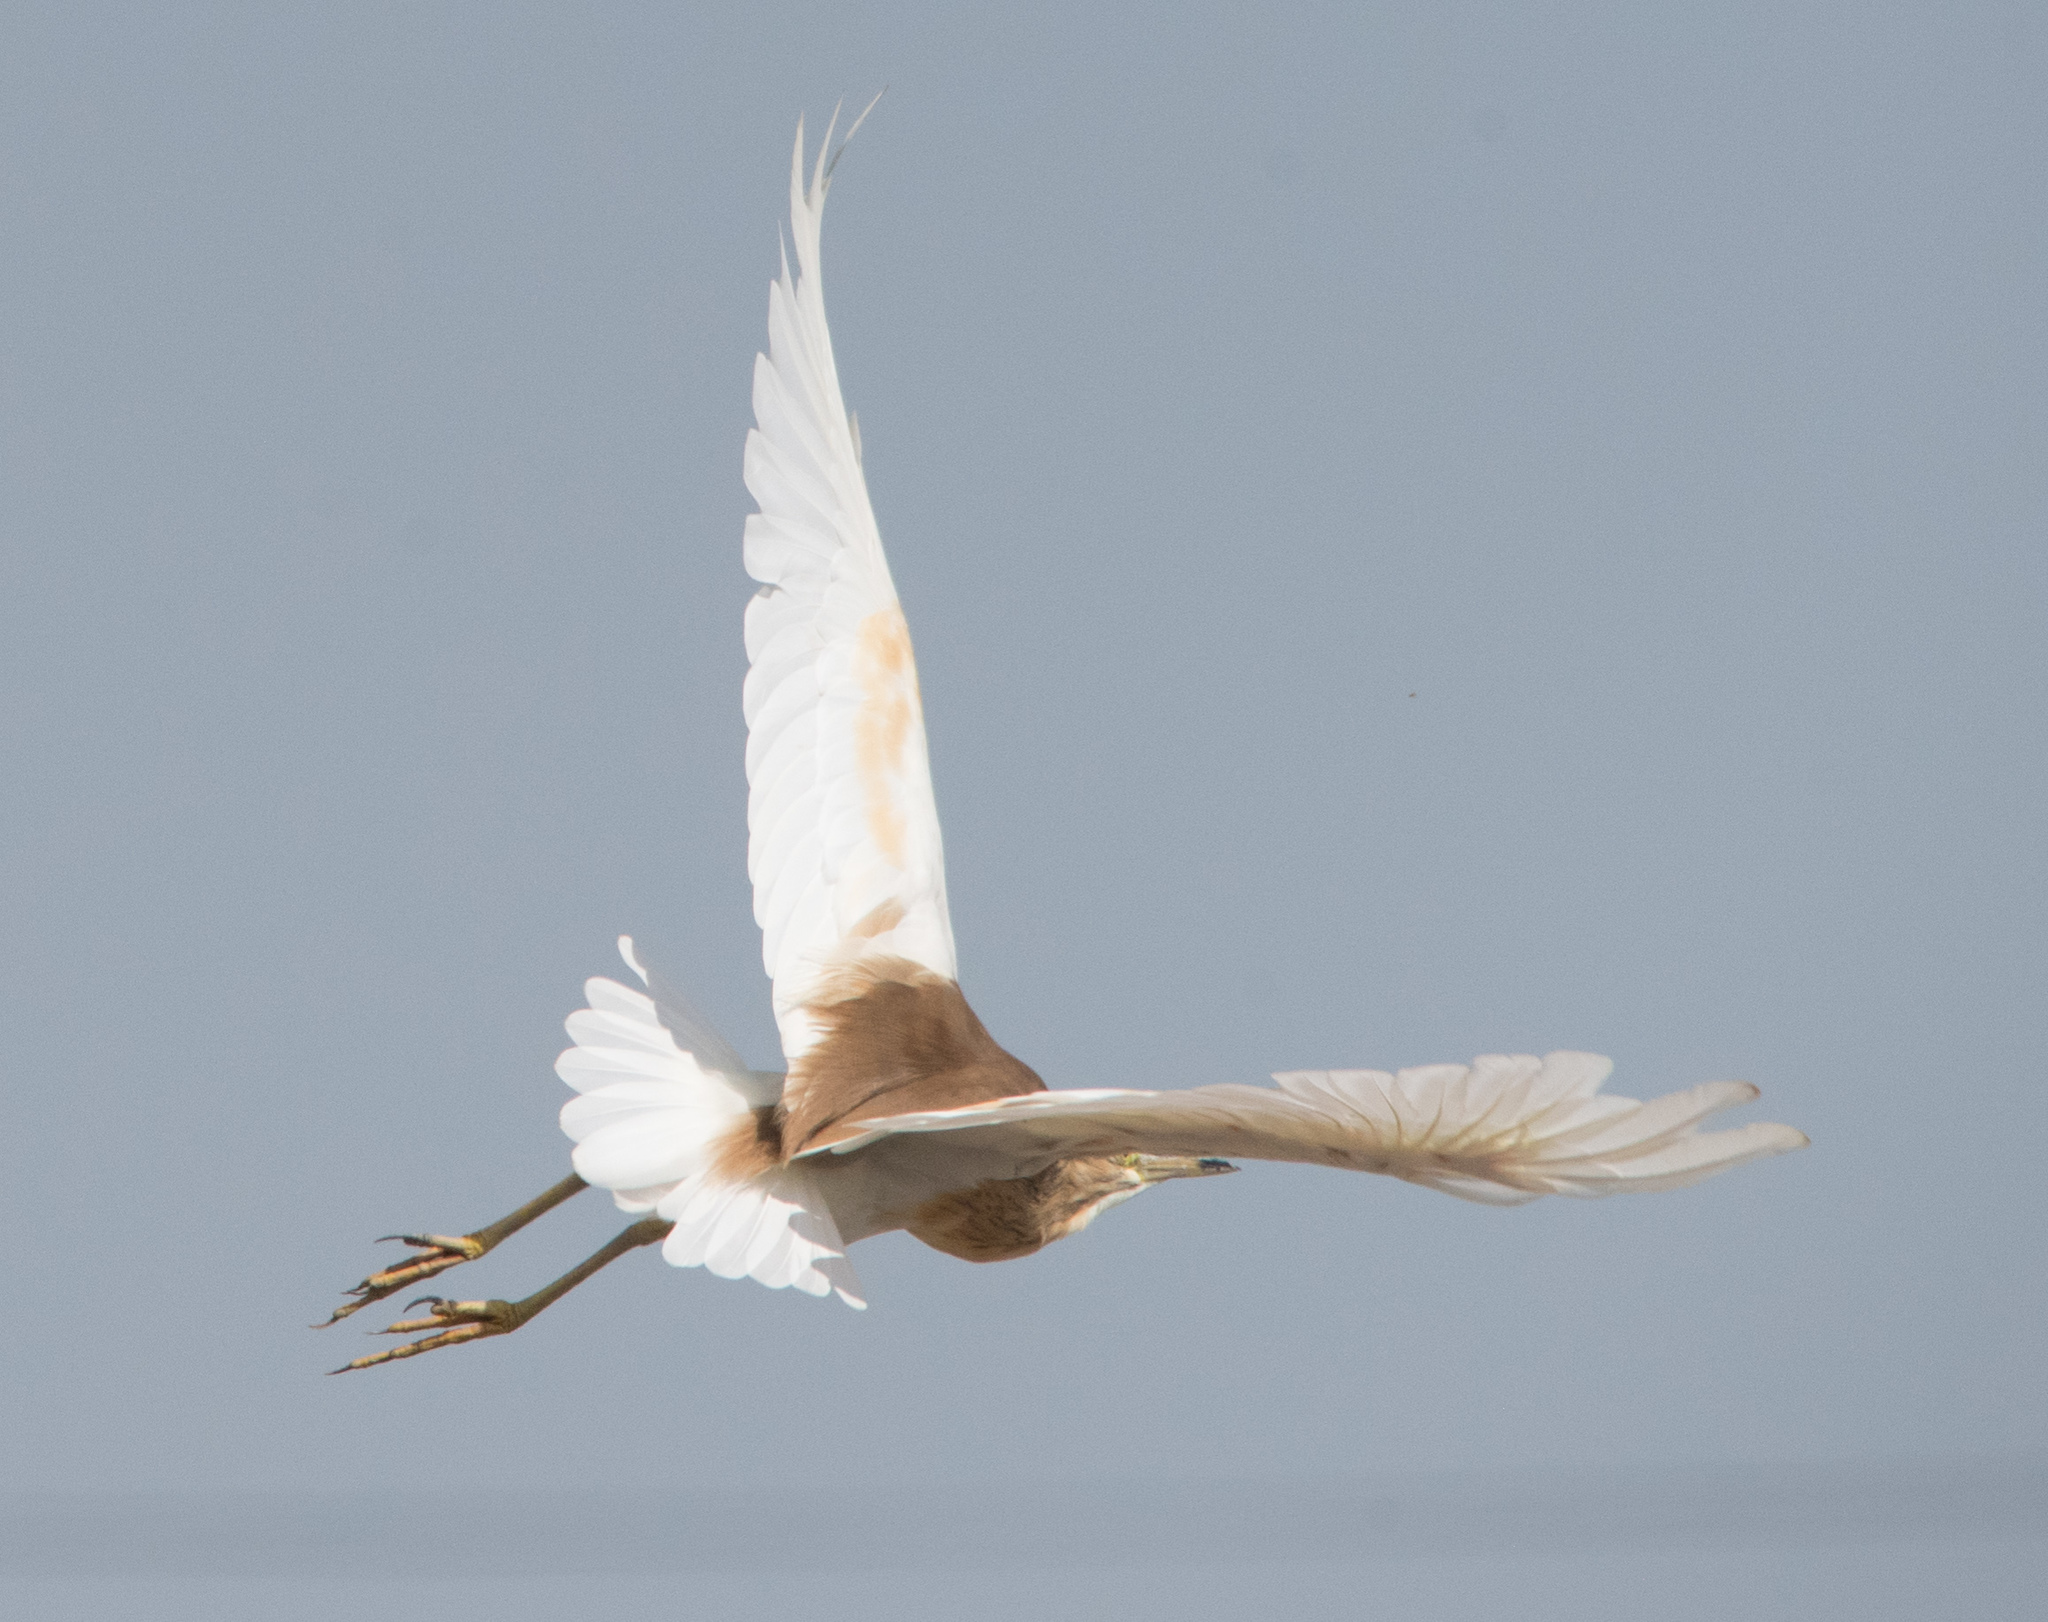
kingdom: Animalia
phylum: Chordata
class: Aves
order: Pelecaniformes
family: Ardeidae
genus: Ardeola
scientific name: Ardeola ralloides
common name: Squacco heron
